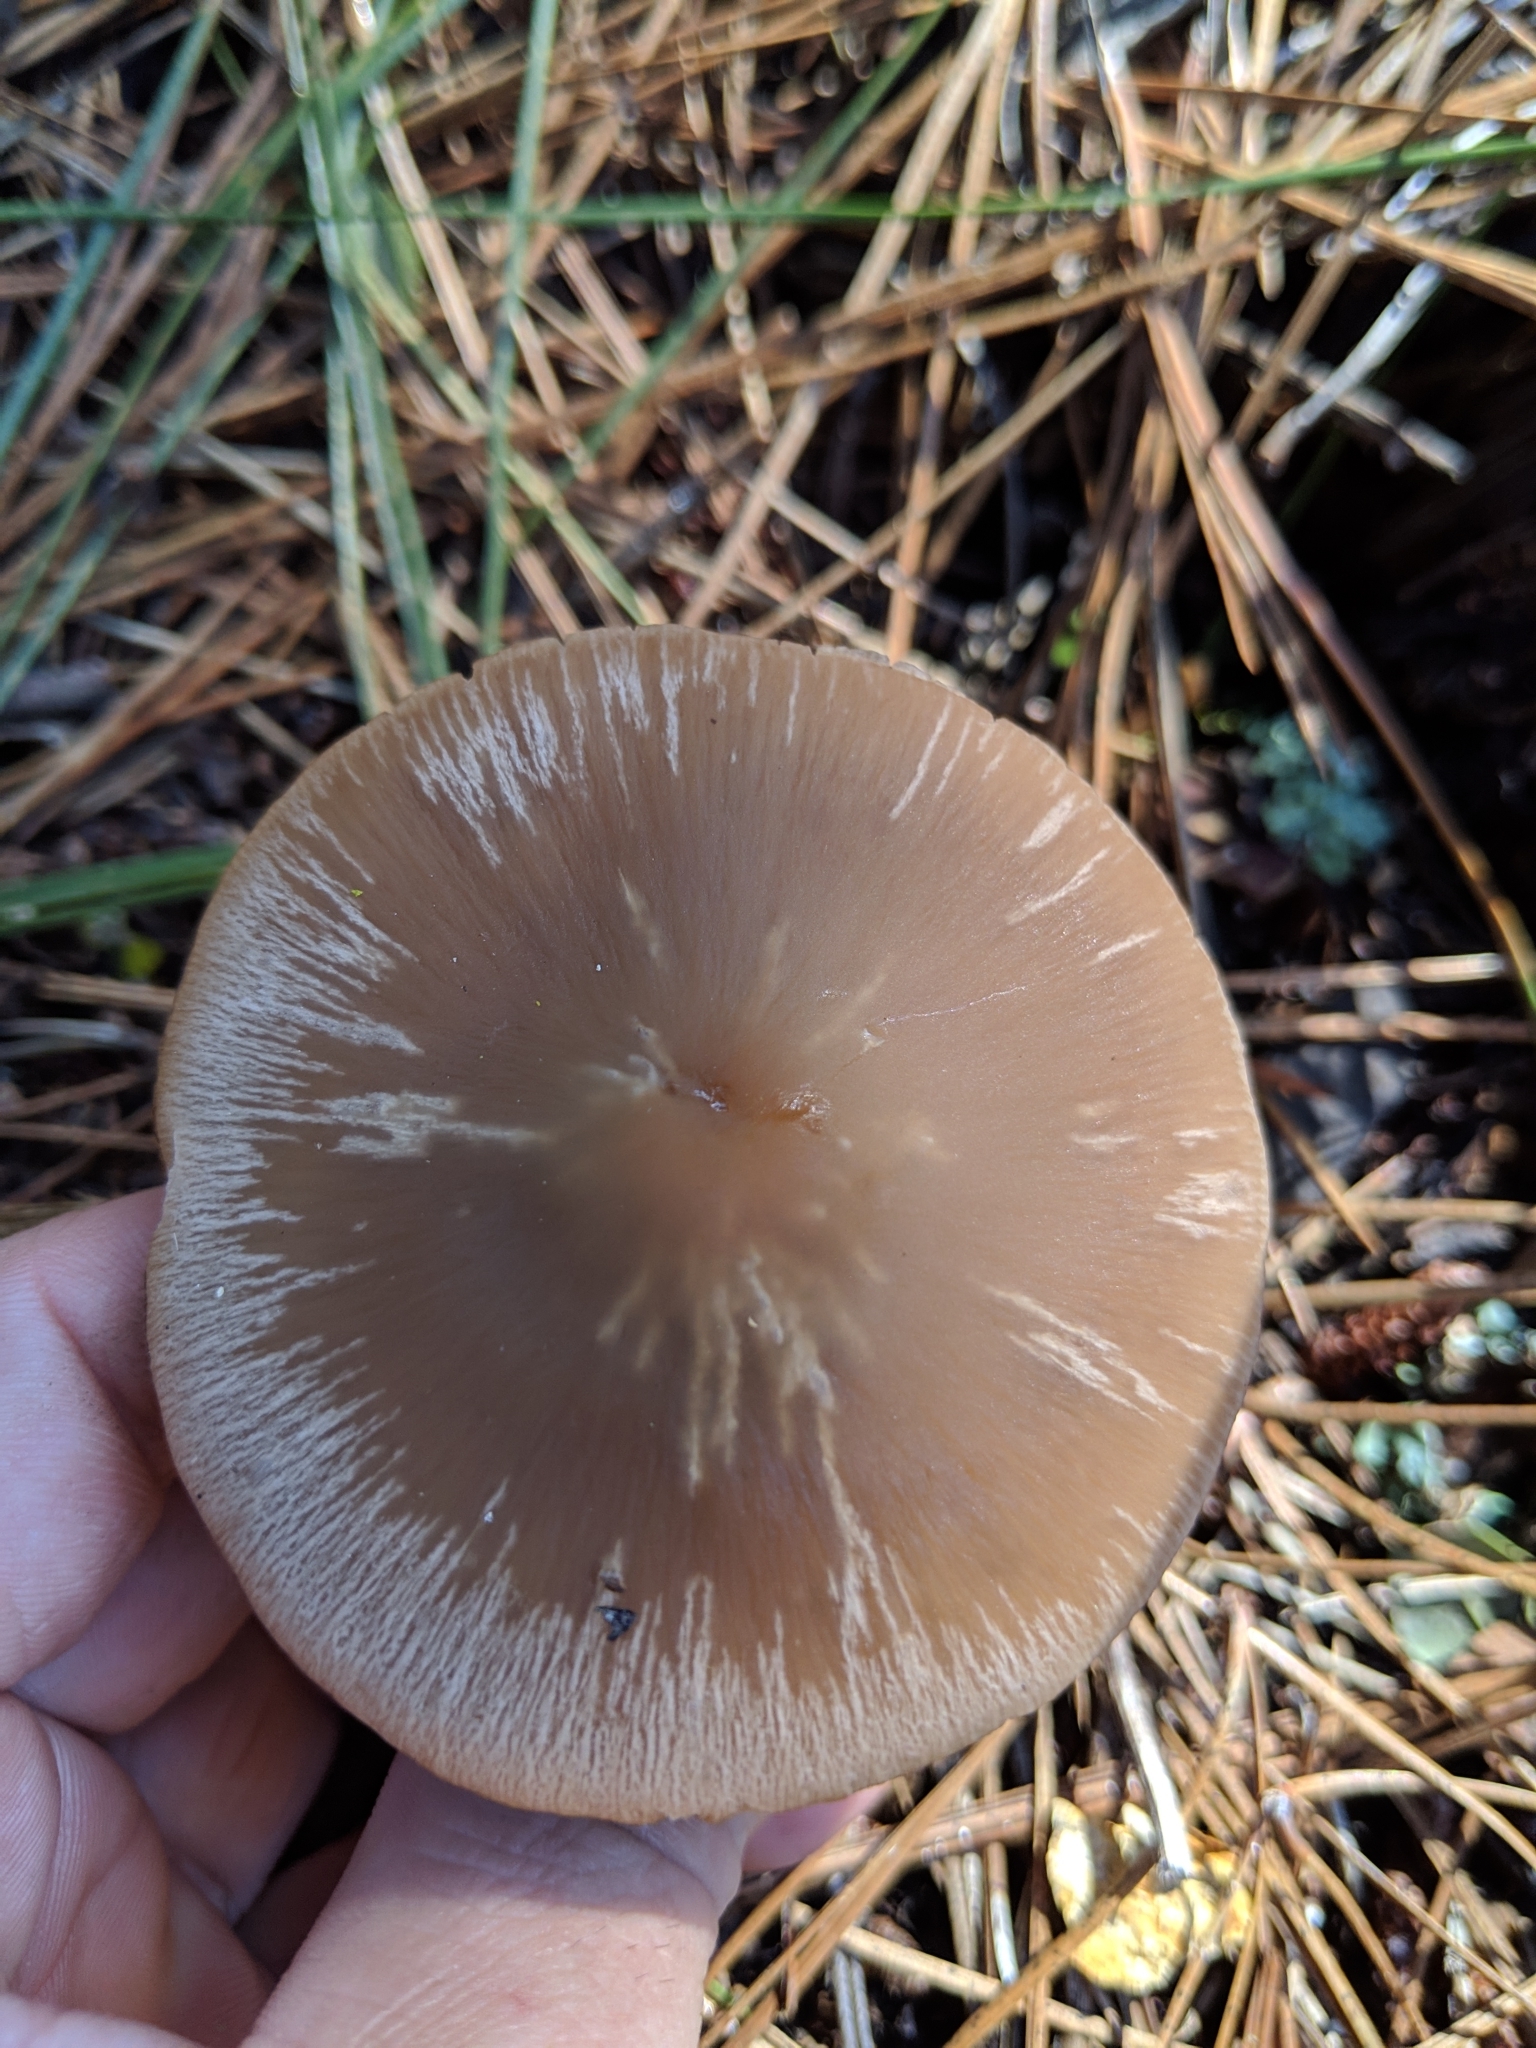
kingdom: Fungi
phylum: Basidiomycota
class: Agaricomycetes
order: Agaricales
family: Psathyrellaceae
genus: Psathyrella
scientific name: Psathyrella longistriata
